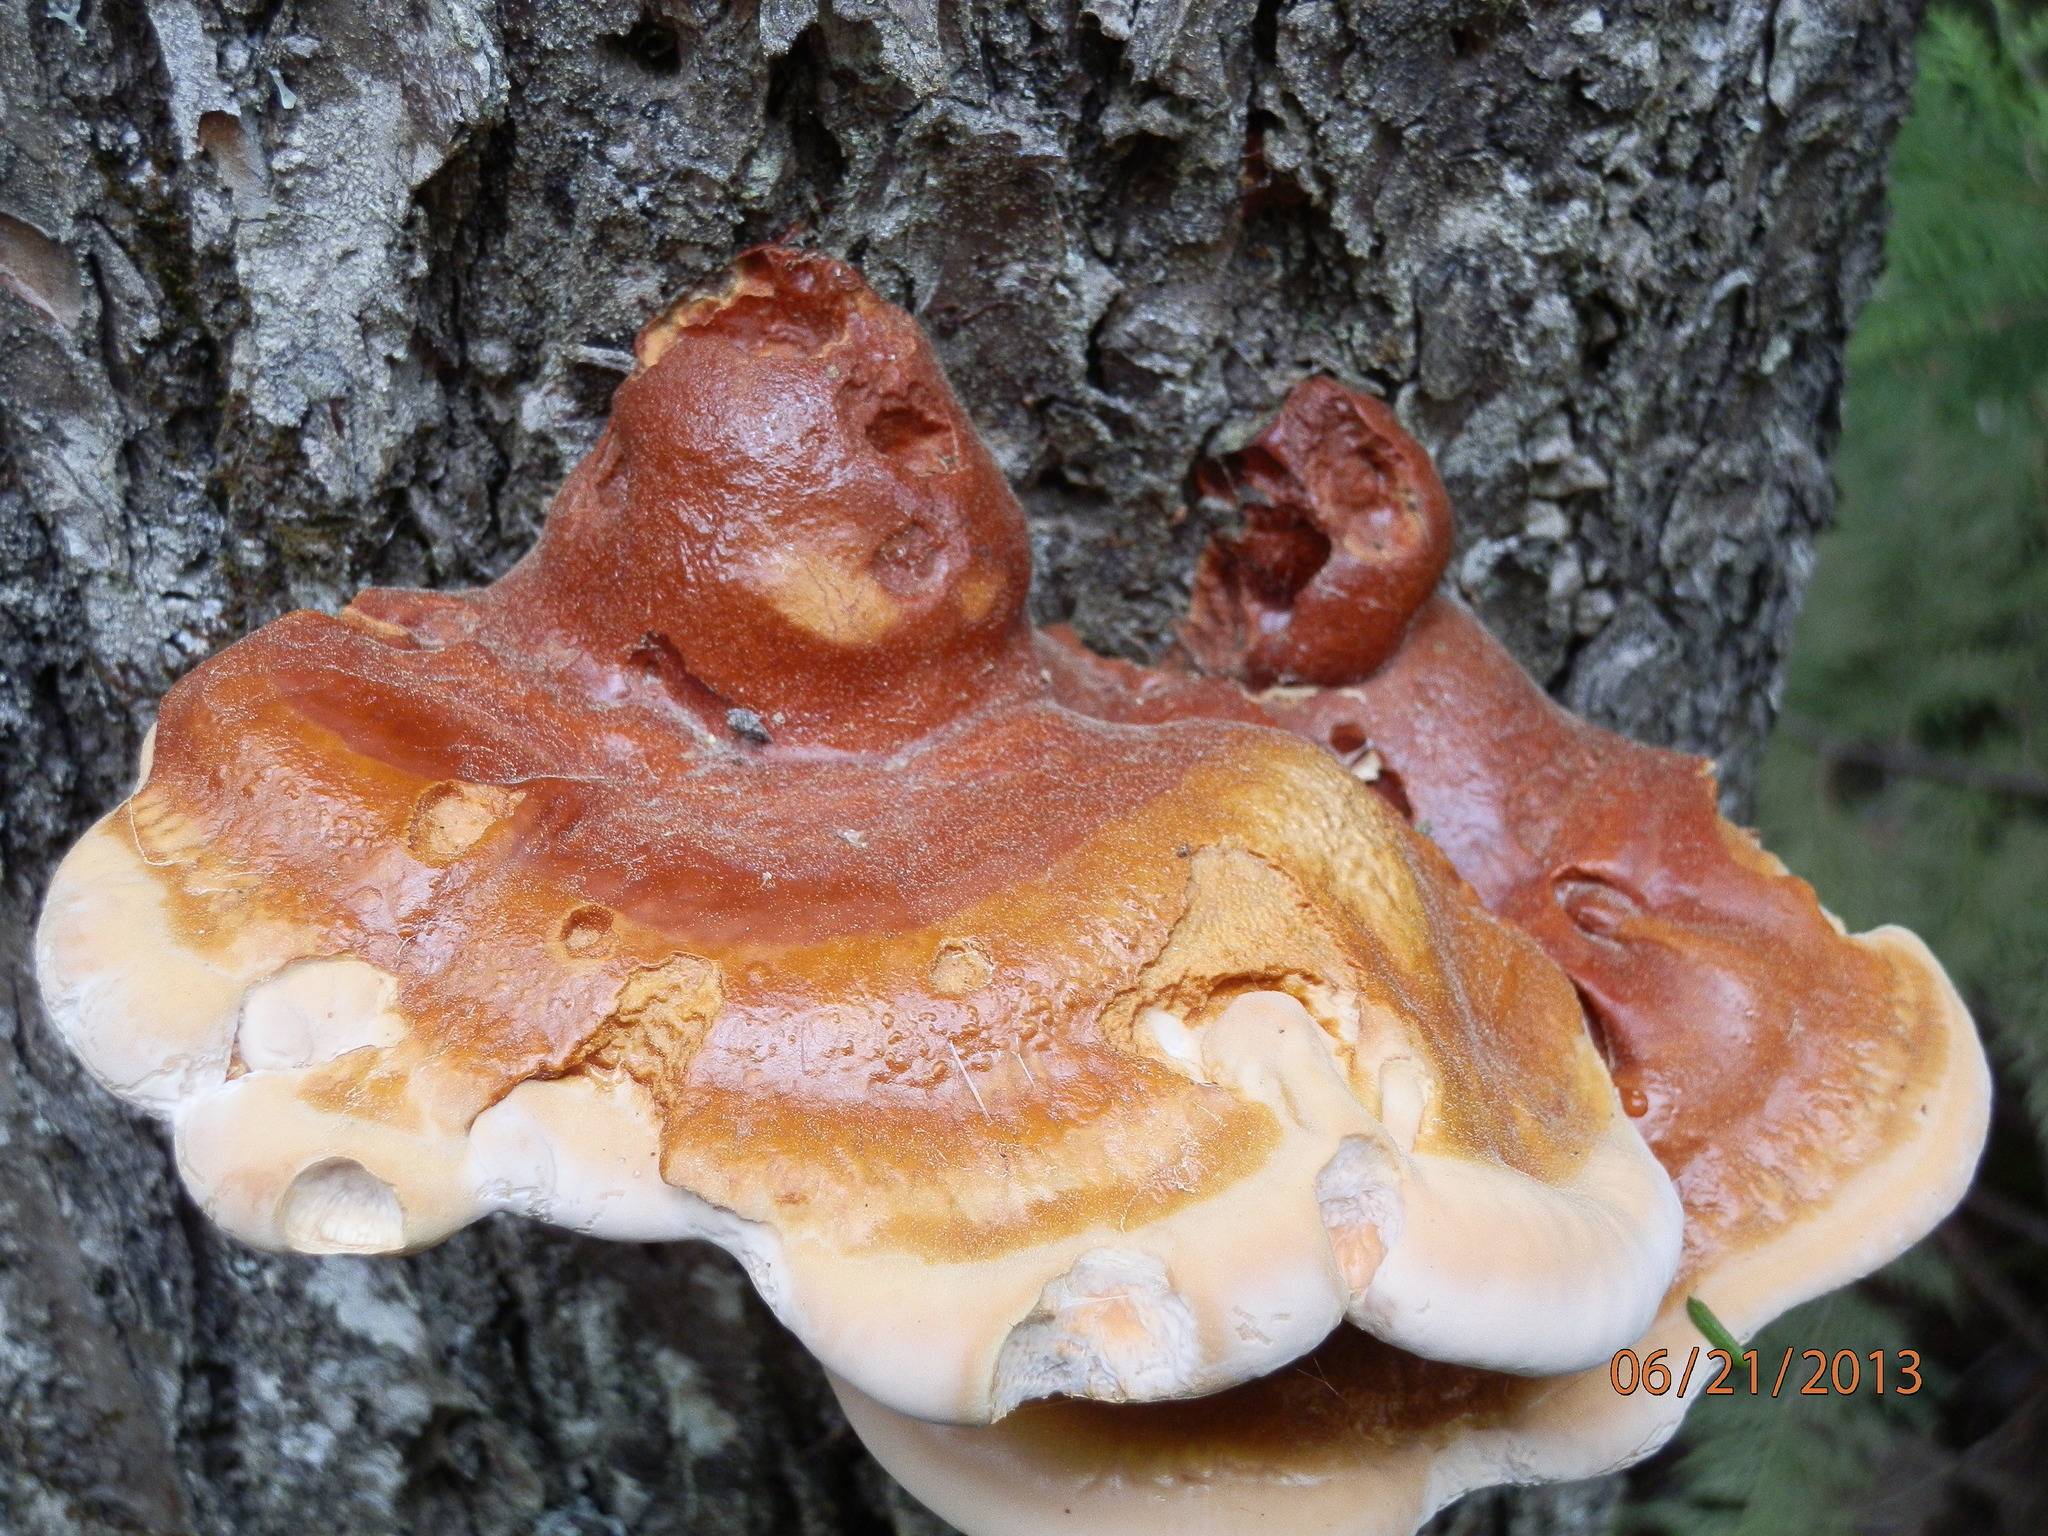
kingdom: Fungi
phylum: Basidiomycota
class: Agaricomycetes
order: Polyporales
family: Polyporaceae
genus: Ganoderma
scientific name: Ganoderma tsugae
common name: Hemlock varnish shelf
